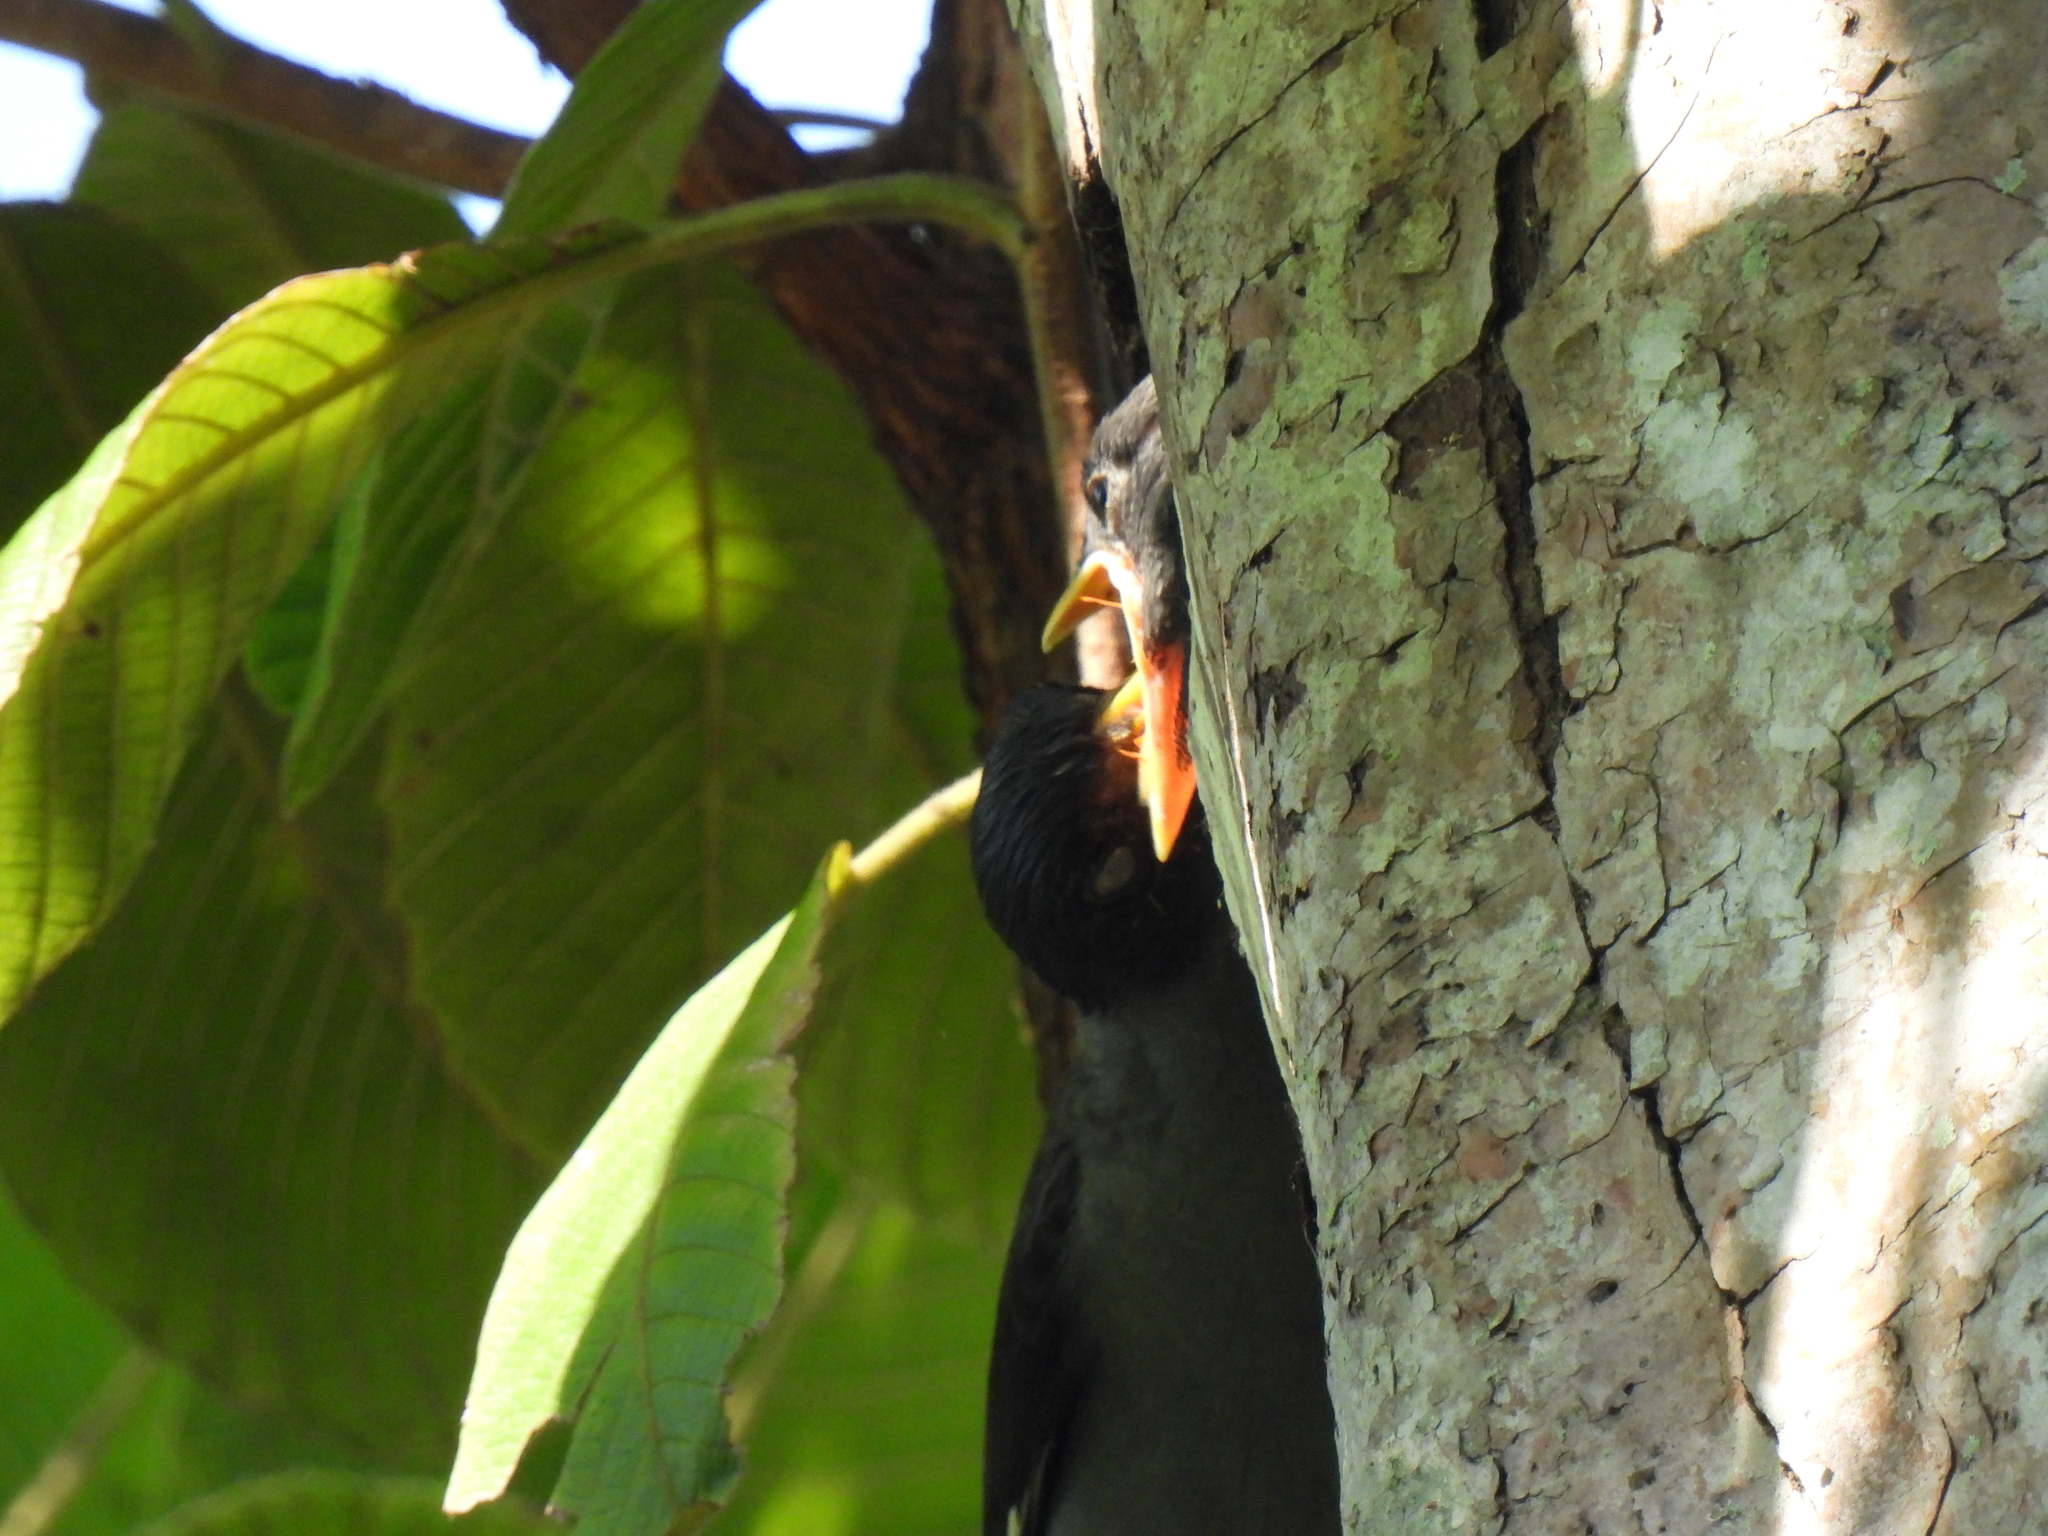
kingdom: Animalia
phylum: Chordata
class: Aves
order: Passeriformes
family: Sturnidae
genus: Acridotheres
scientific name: Acridotheres javanicus
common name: Javan myna
